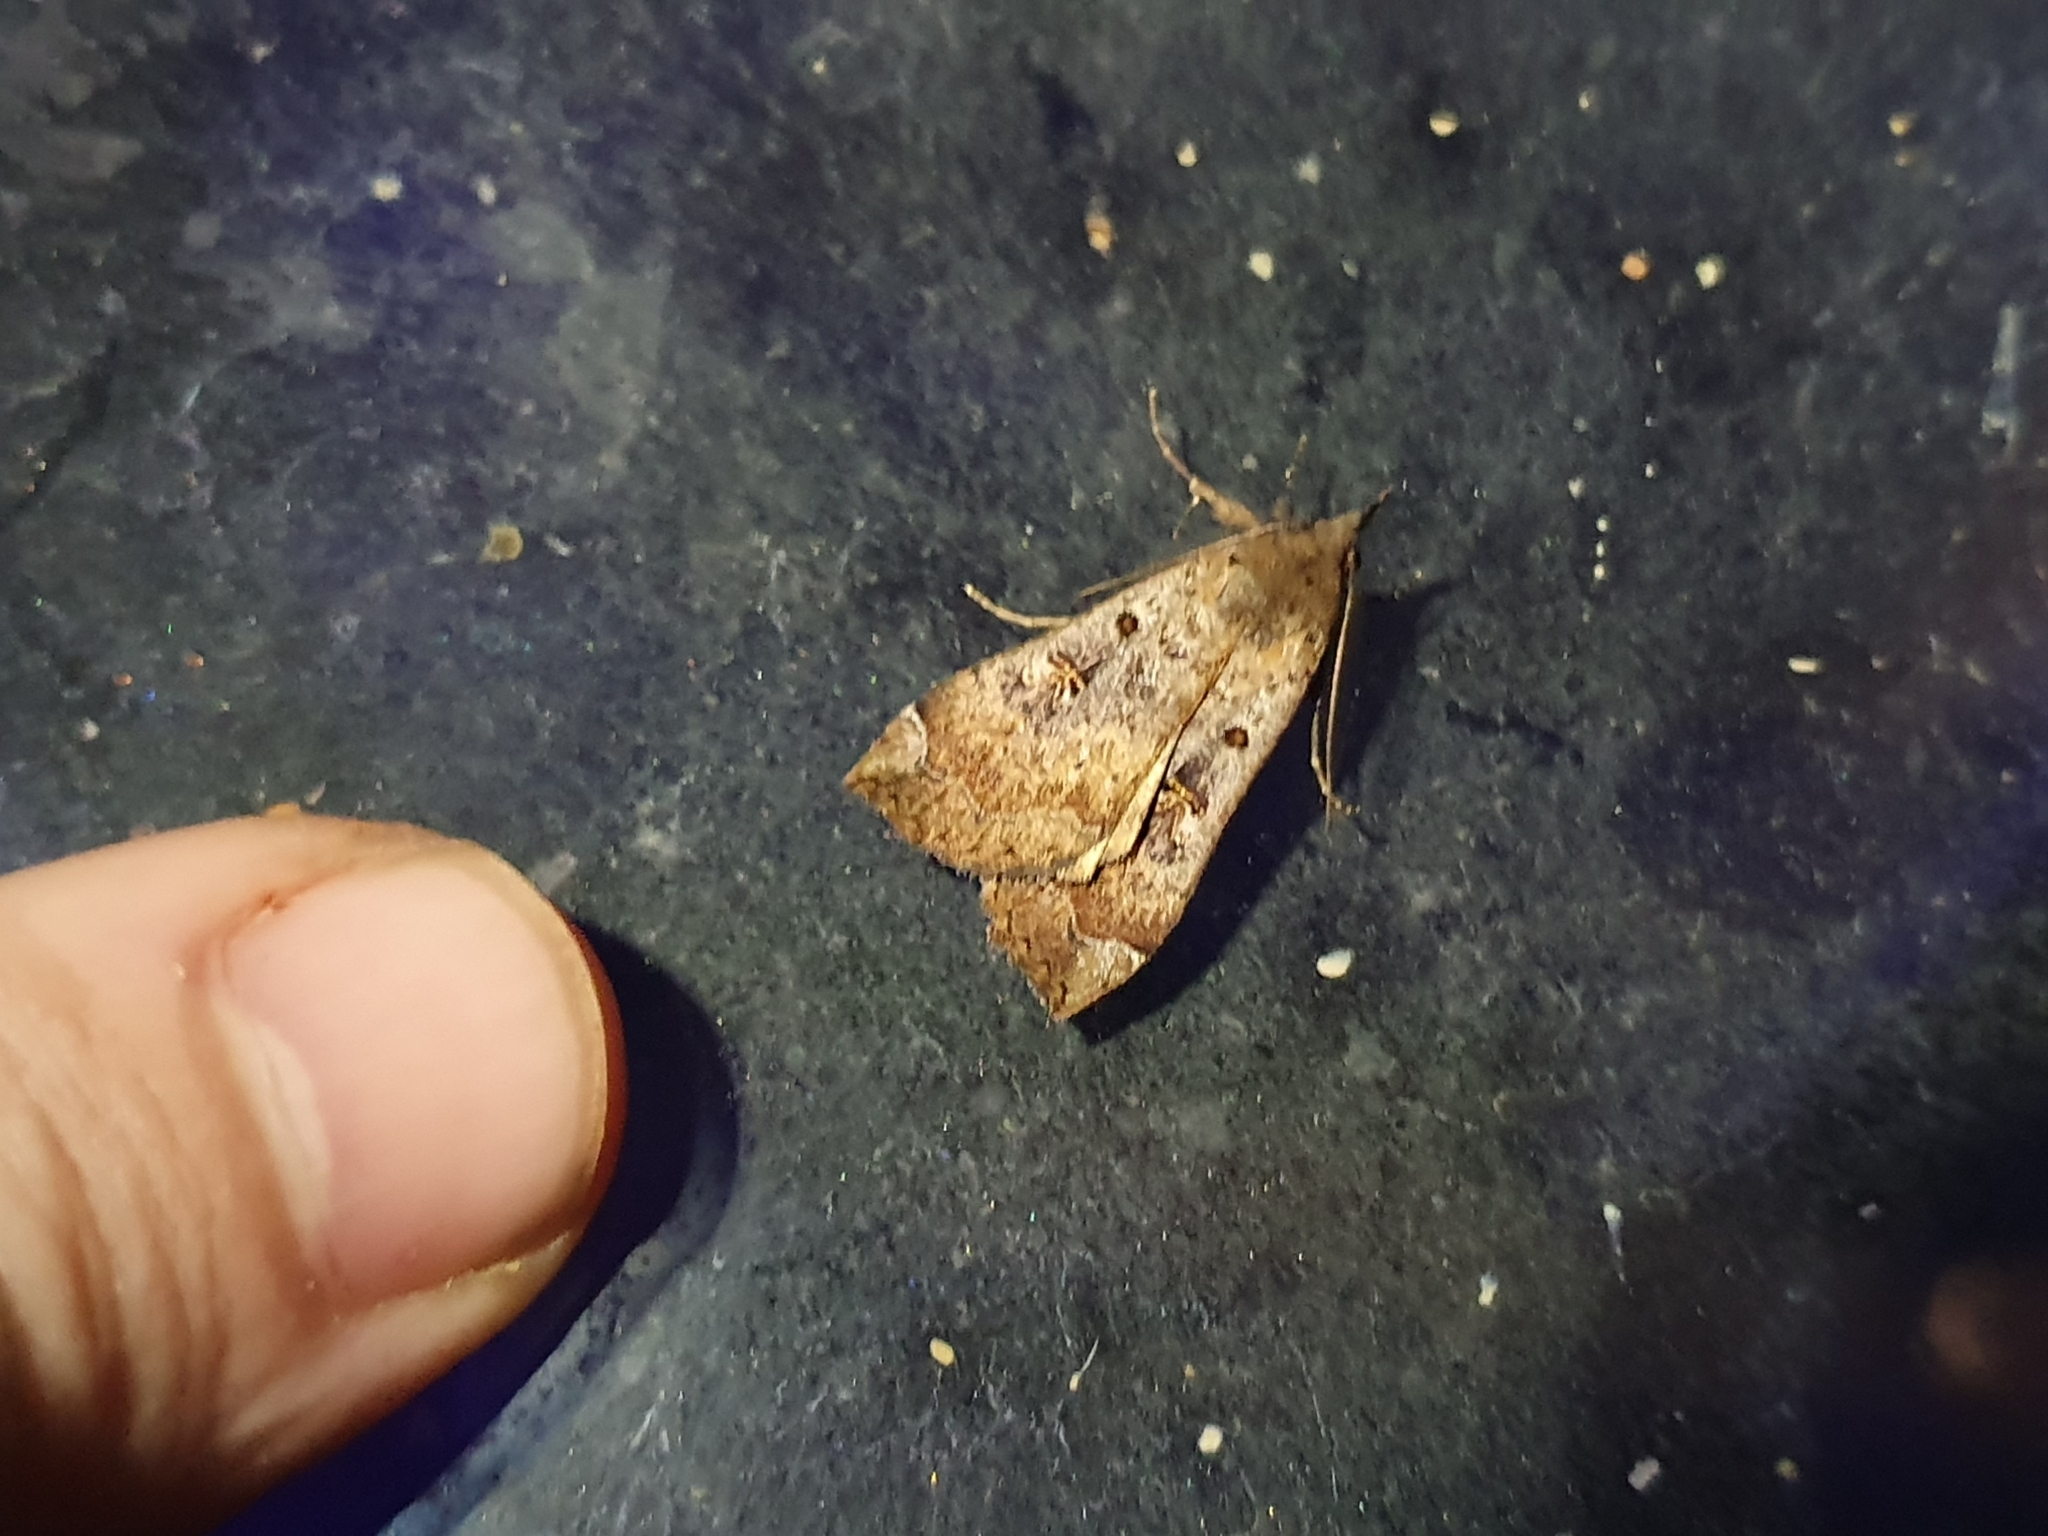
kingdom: Animalia
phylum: Arthropoda
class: Insecta
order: Lepidoptera
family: Erebidae
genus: Rhapsa
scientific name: Rhapsa scotosialis
